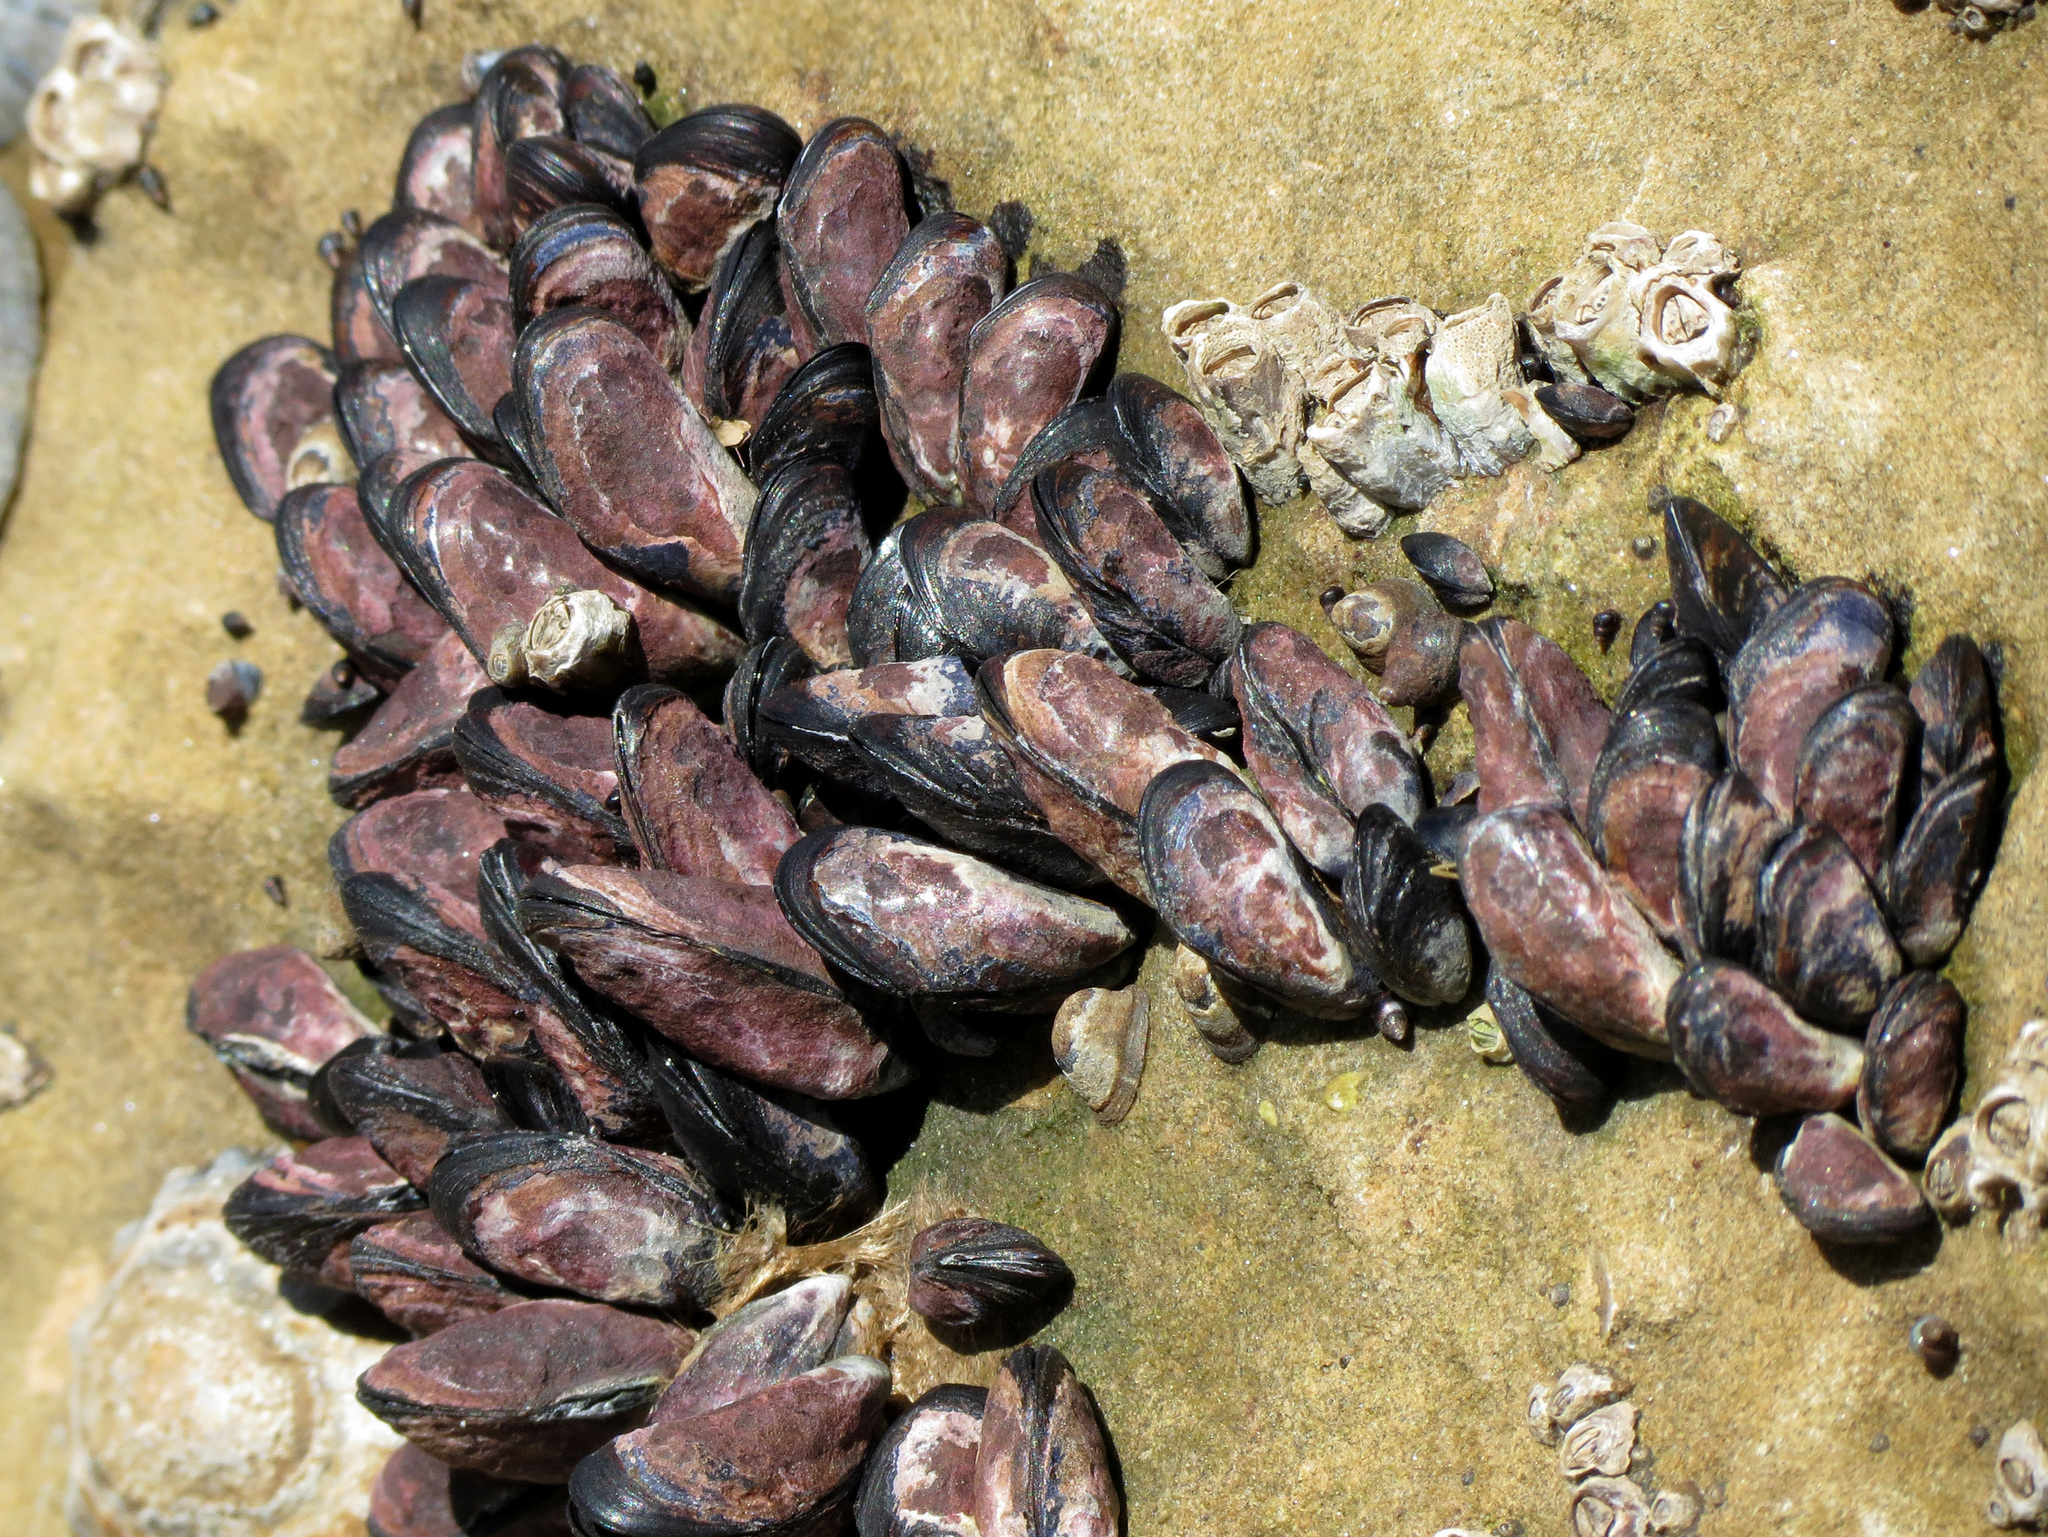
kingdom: Animalia
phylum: Mollusca
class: Bivalvia
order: Mytilida
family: Mytilidae
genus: Xenostrobus
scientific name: Xenostrobus neozelanicus
